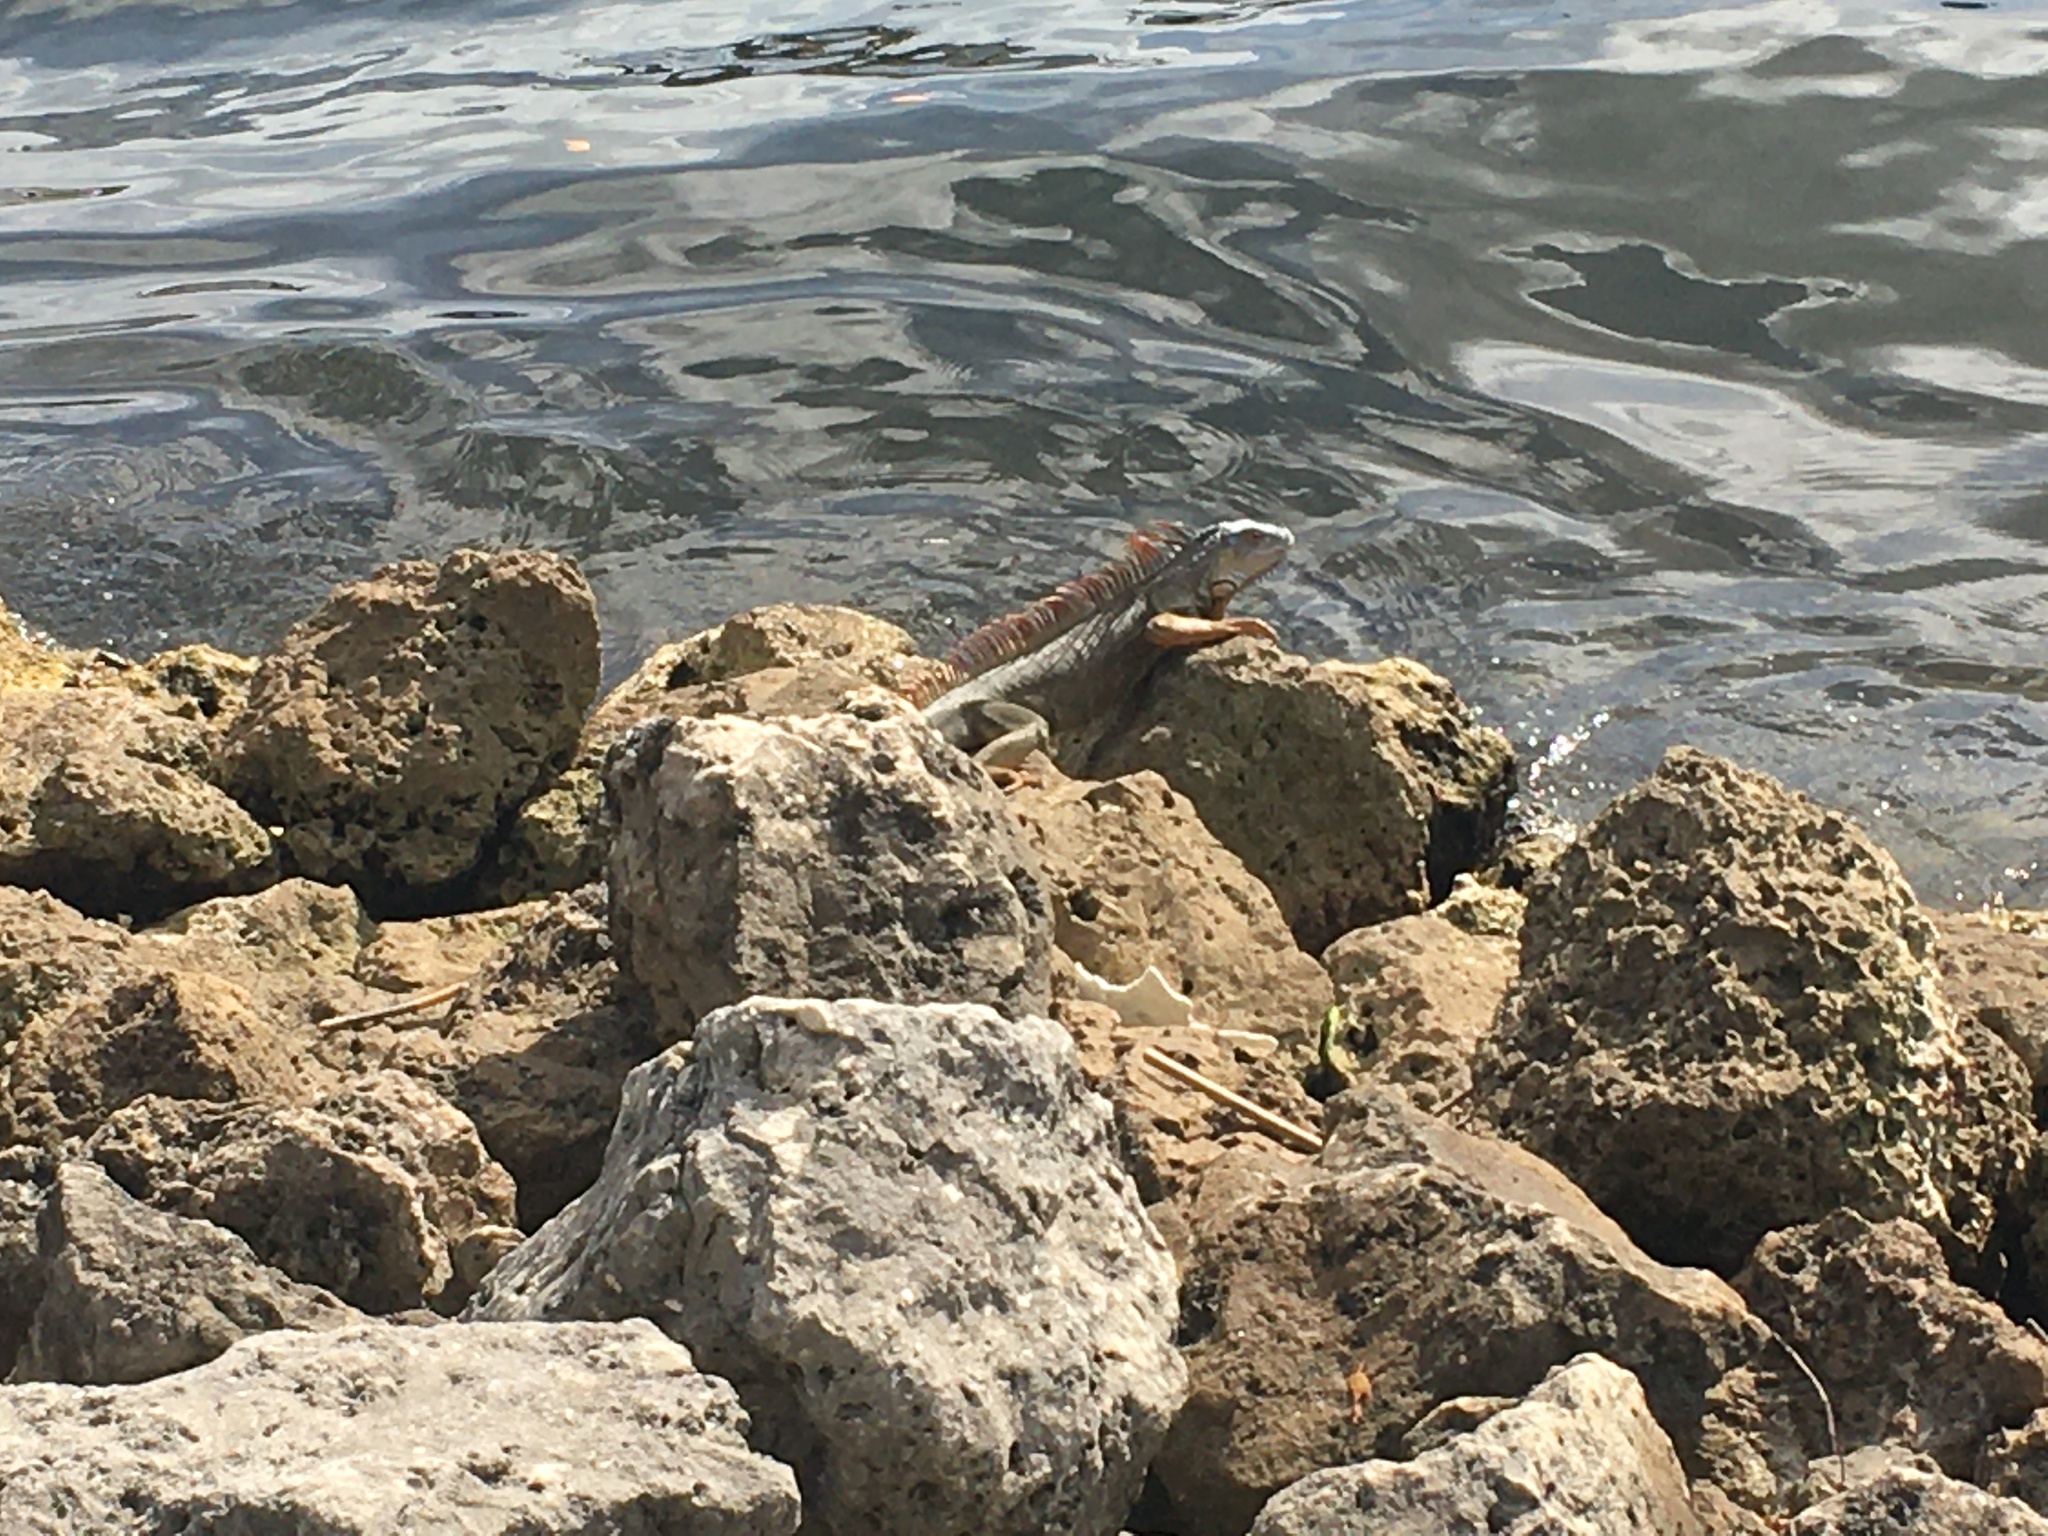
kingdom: Animalia
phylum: Chordata
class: Squamata
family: Iguanidae
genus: Iguana
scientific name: Iguana iguana
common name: Green iguana
